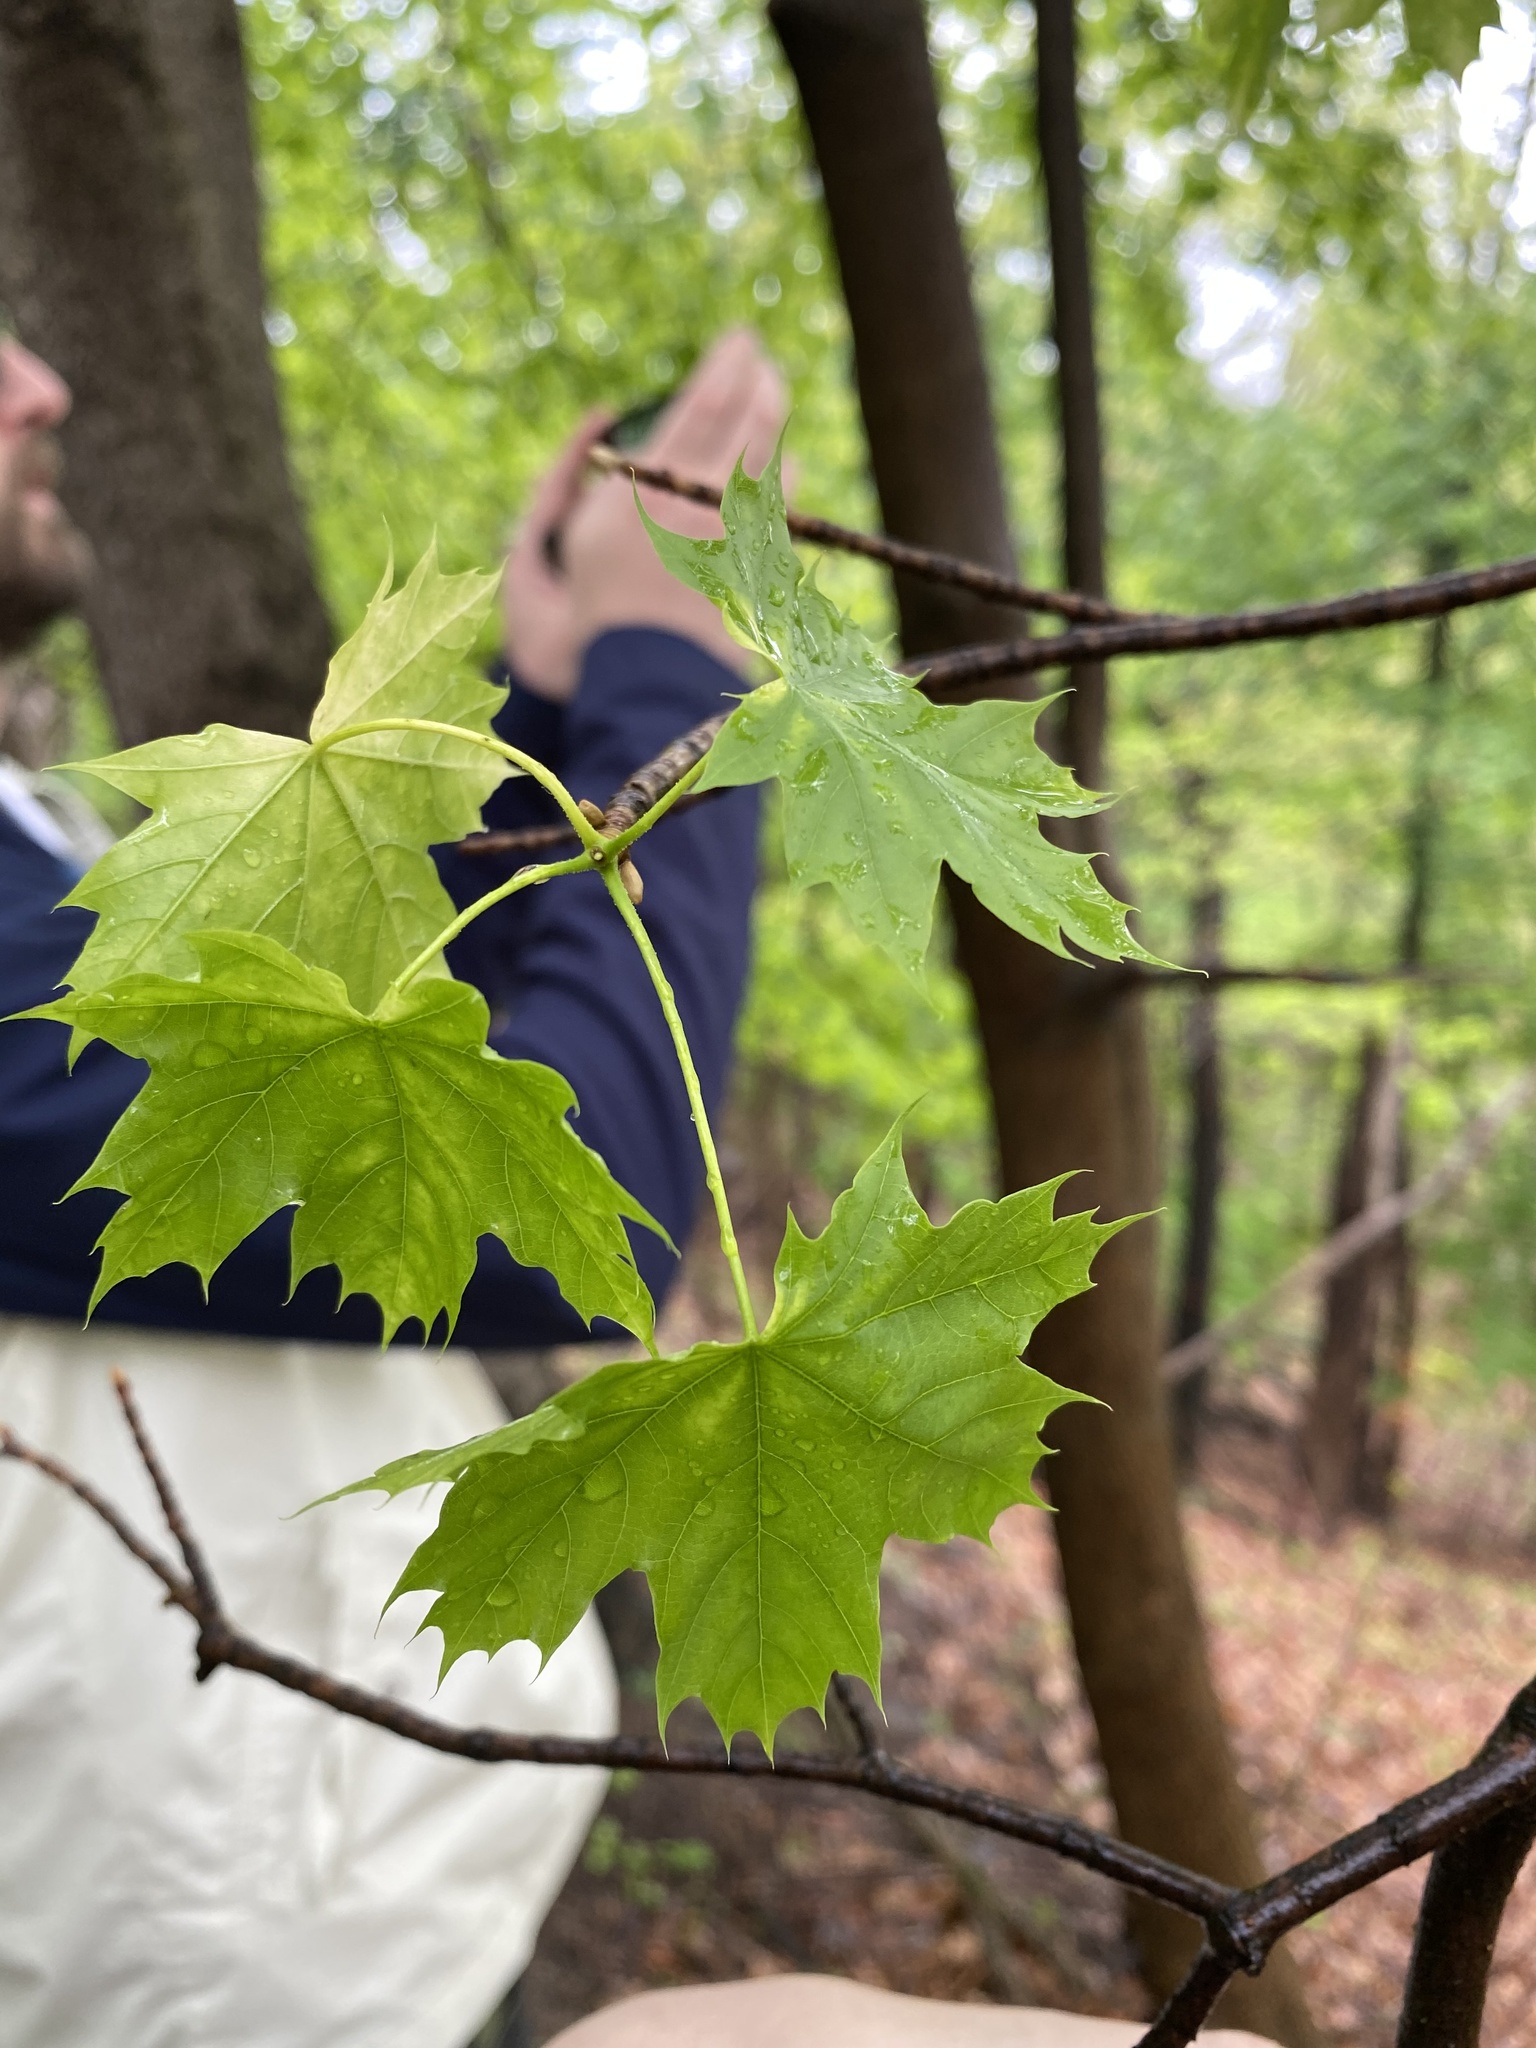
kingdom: Plantae
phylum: Tracheophyta
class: Magnoliopsida
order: Sapindales
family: Sapindaceae
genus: Acer
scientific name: Acer platanoides
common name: Norway maple
